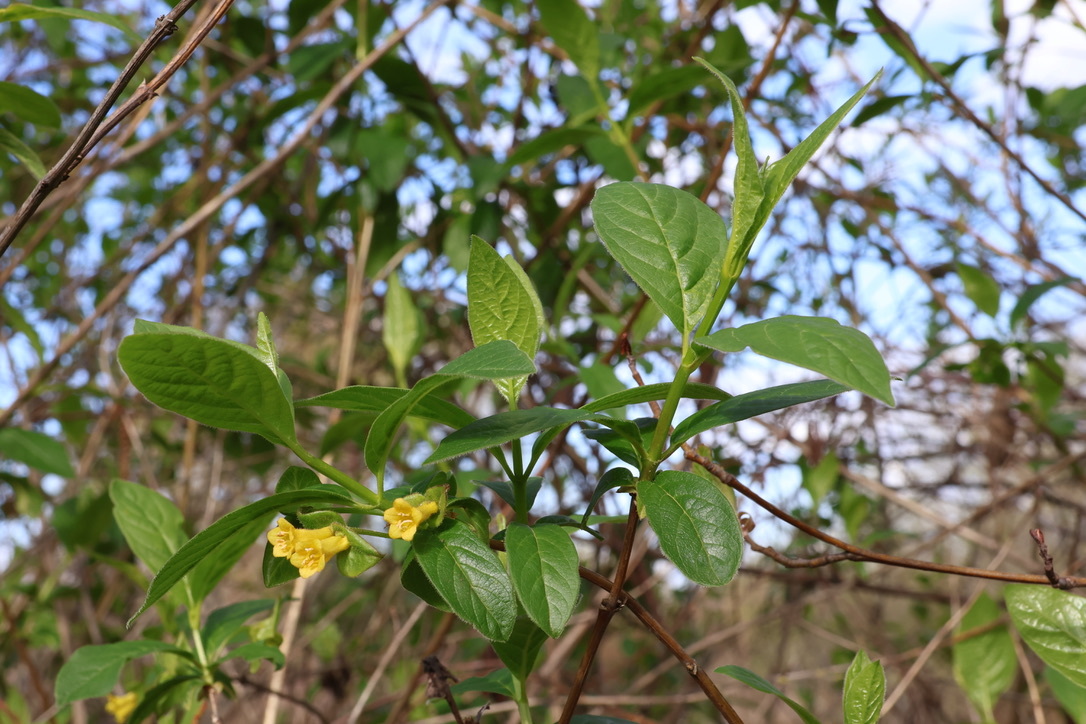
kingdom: Plantae
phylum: Tracheophyta
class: Magnoliopsida
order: Dipsacales
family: Caprifoliaceae
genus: Lonicera
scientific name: Lonicera involucrata
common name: Californian honeysuckle
